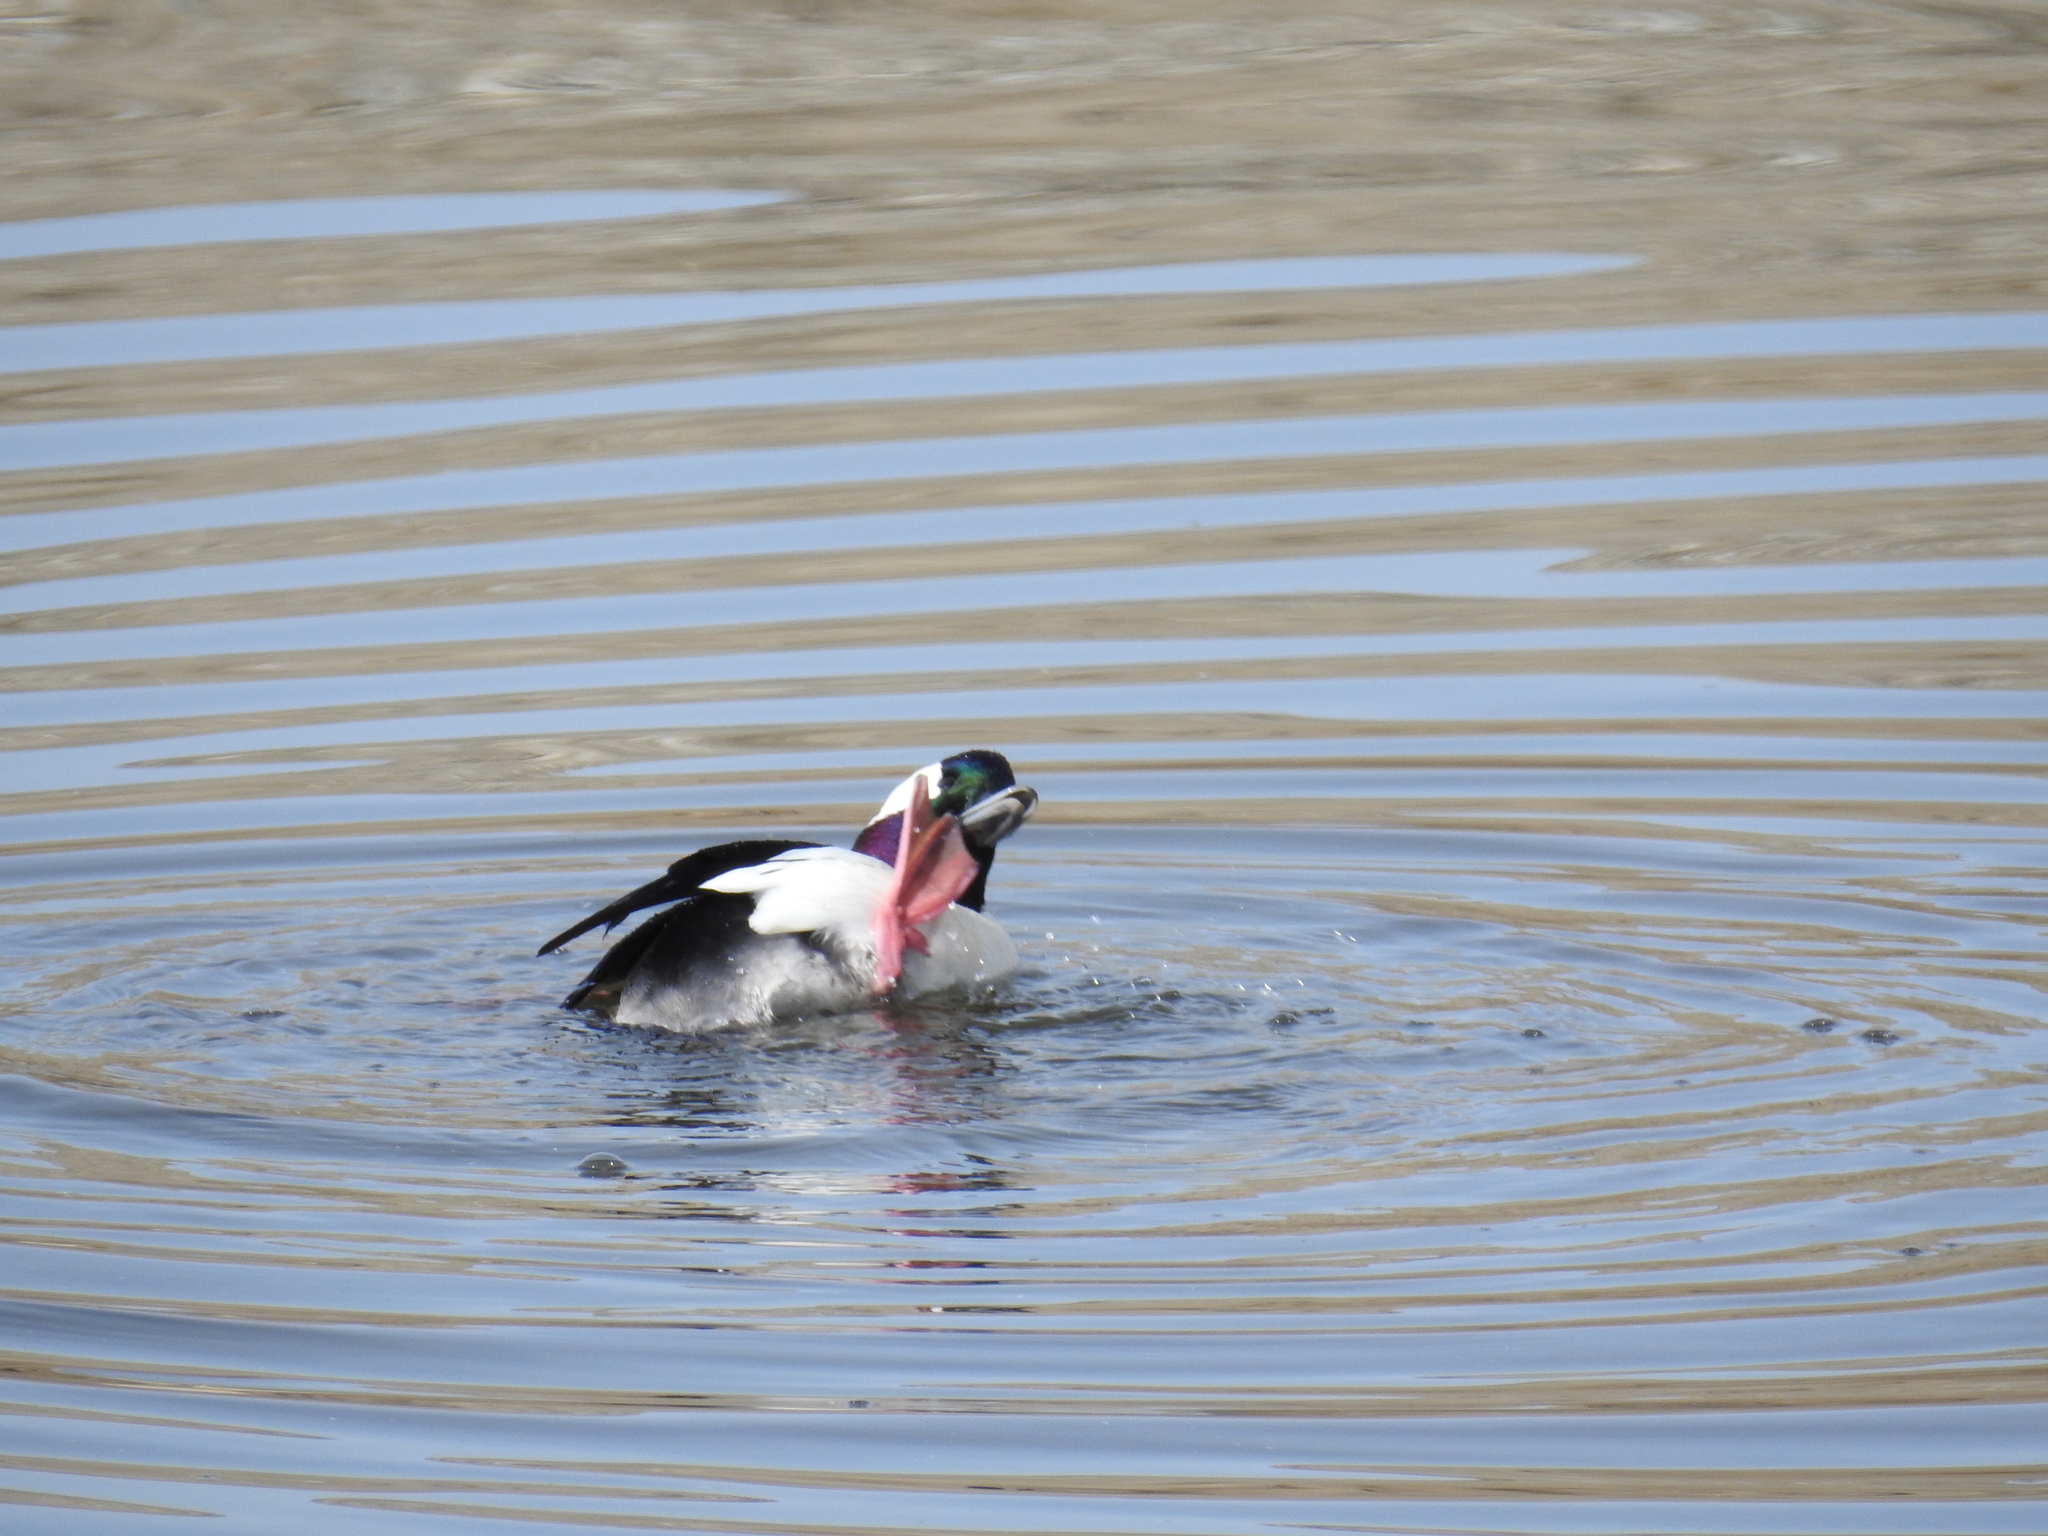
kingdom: Animalia
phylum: Chordata
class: Aves
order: Anseriformes
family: Anatidae
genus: Bucephala
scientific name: Bucephala albeola
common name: Bufflehead
